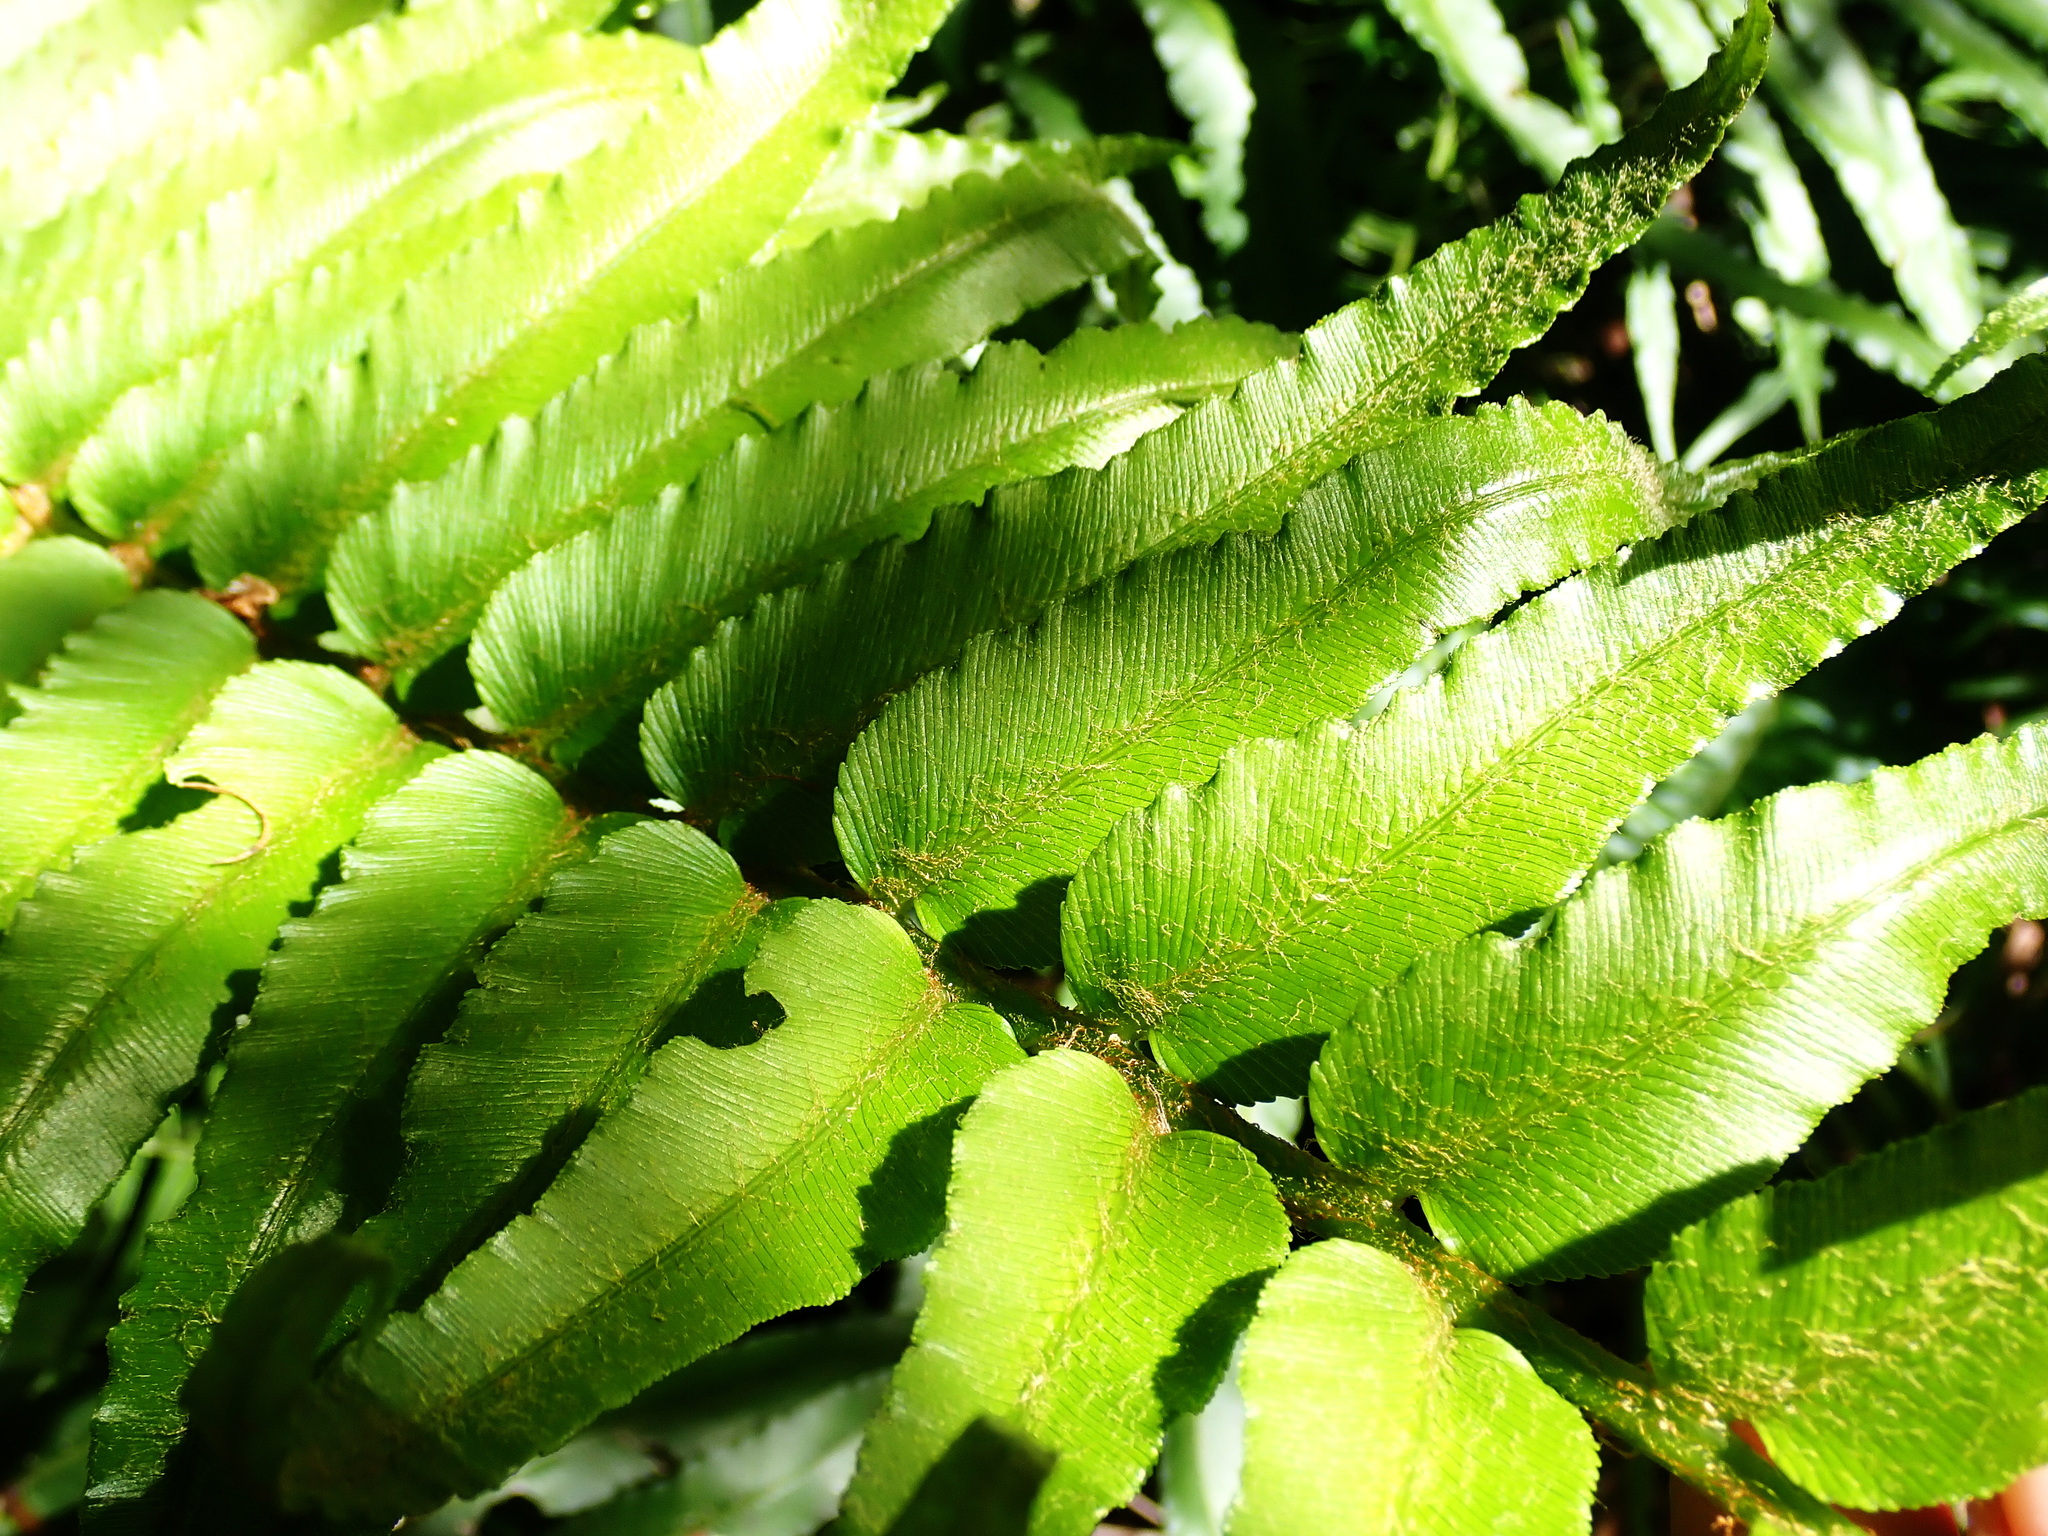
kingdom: Plantae
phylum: Tracheophyta
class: Polypodiopsida
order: Polypodiales
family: Blechnaceae
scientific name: Blechnaceae
